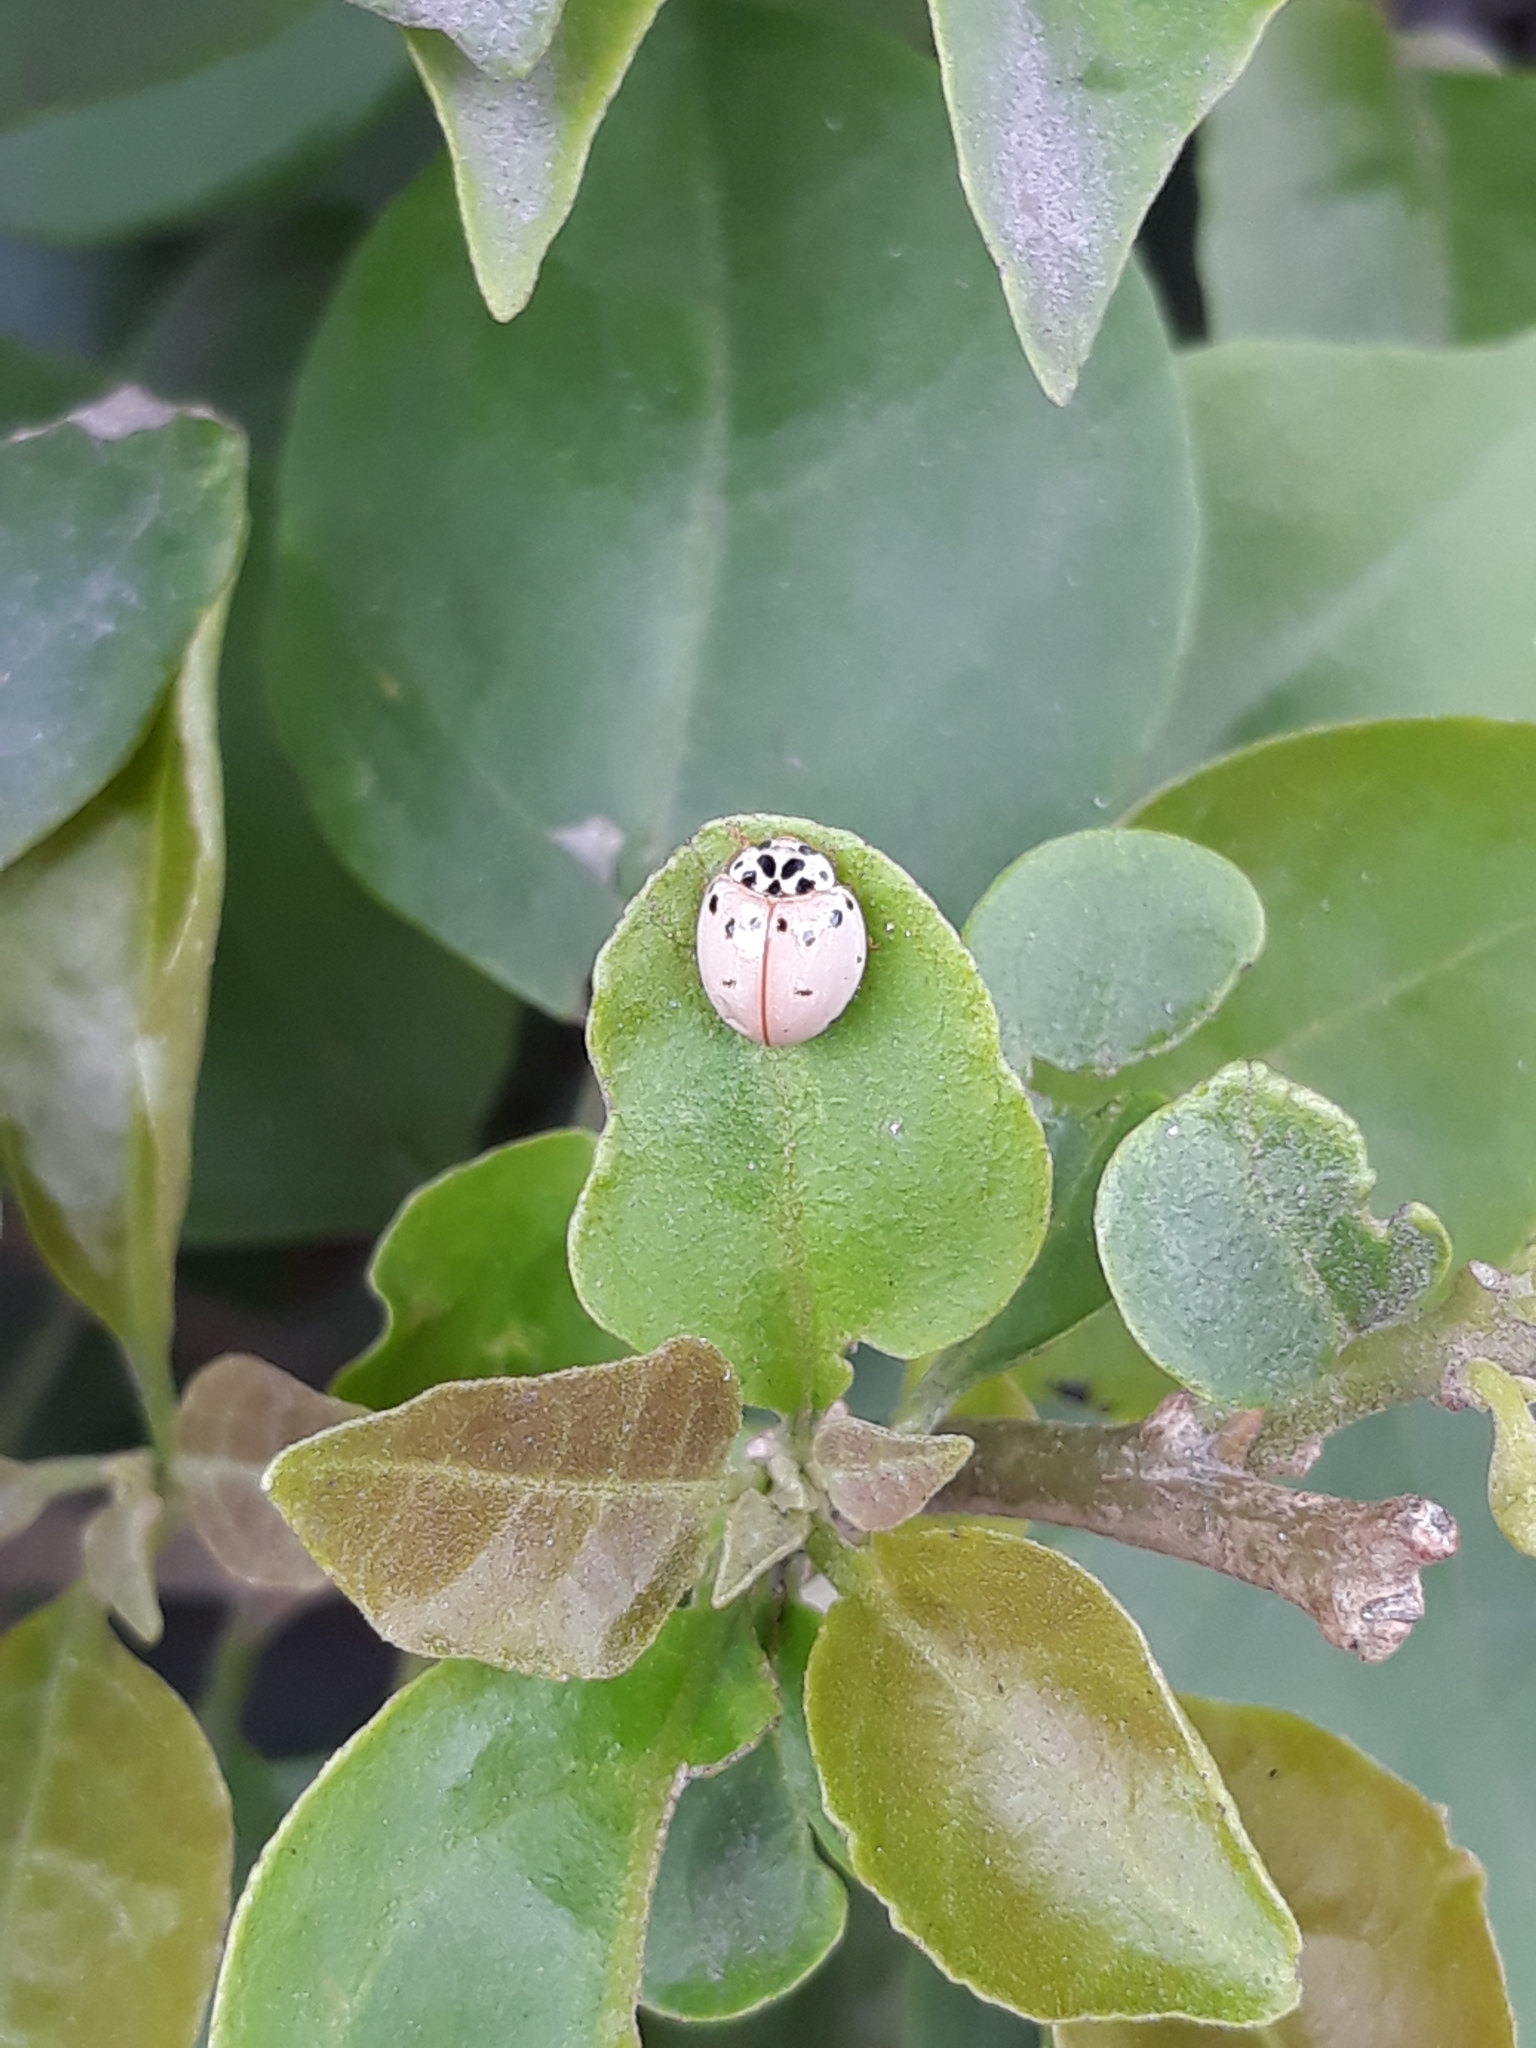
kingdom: Animalia
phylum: Arthropoda
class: Insecta
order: Coleoptera
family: Coccinellidae
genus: Olla
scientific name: Olla v-nigrum
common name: Ashy gray lady beetle
